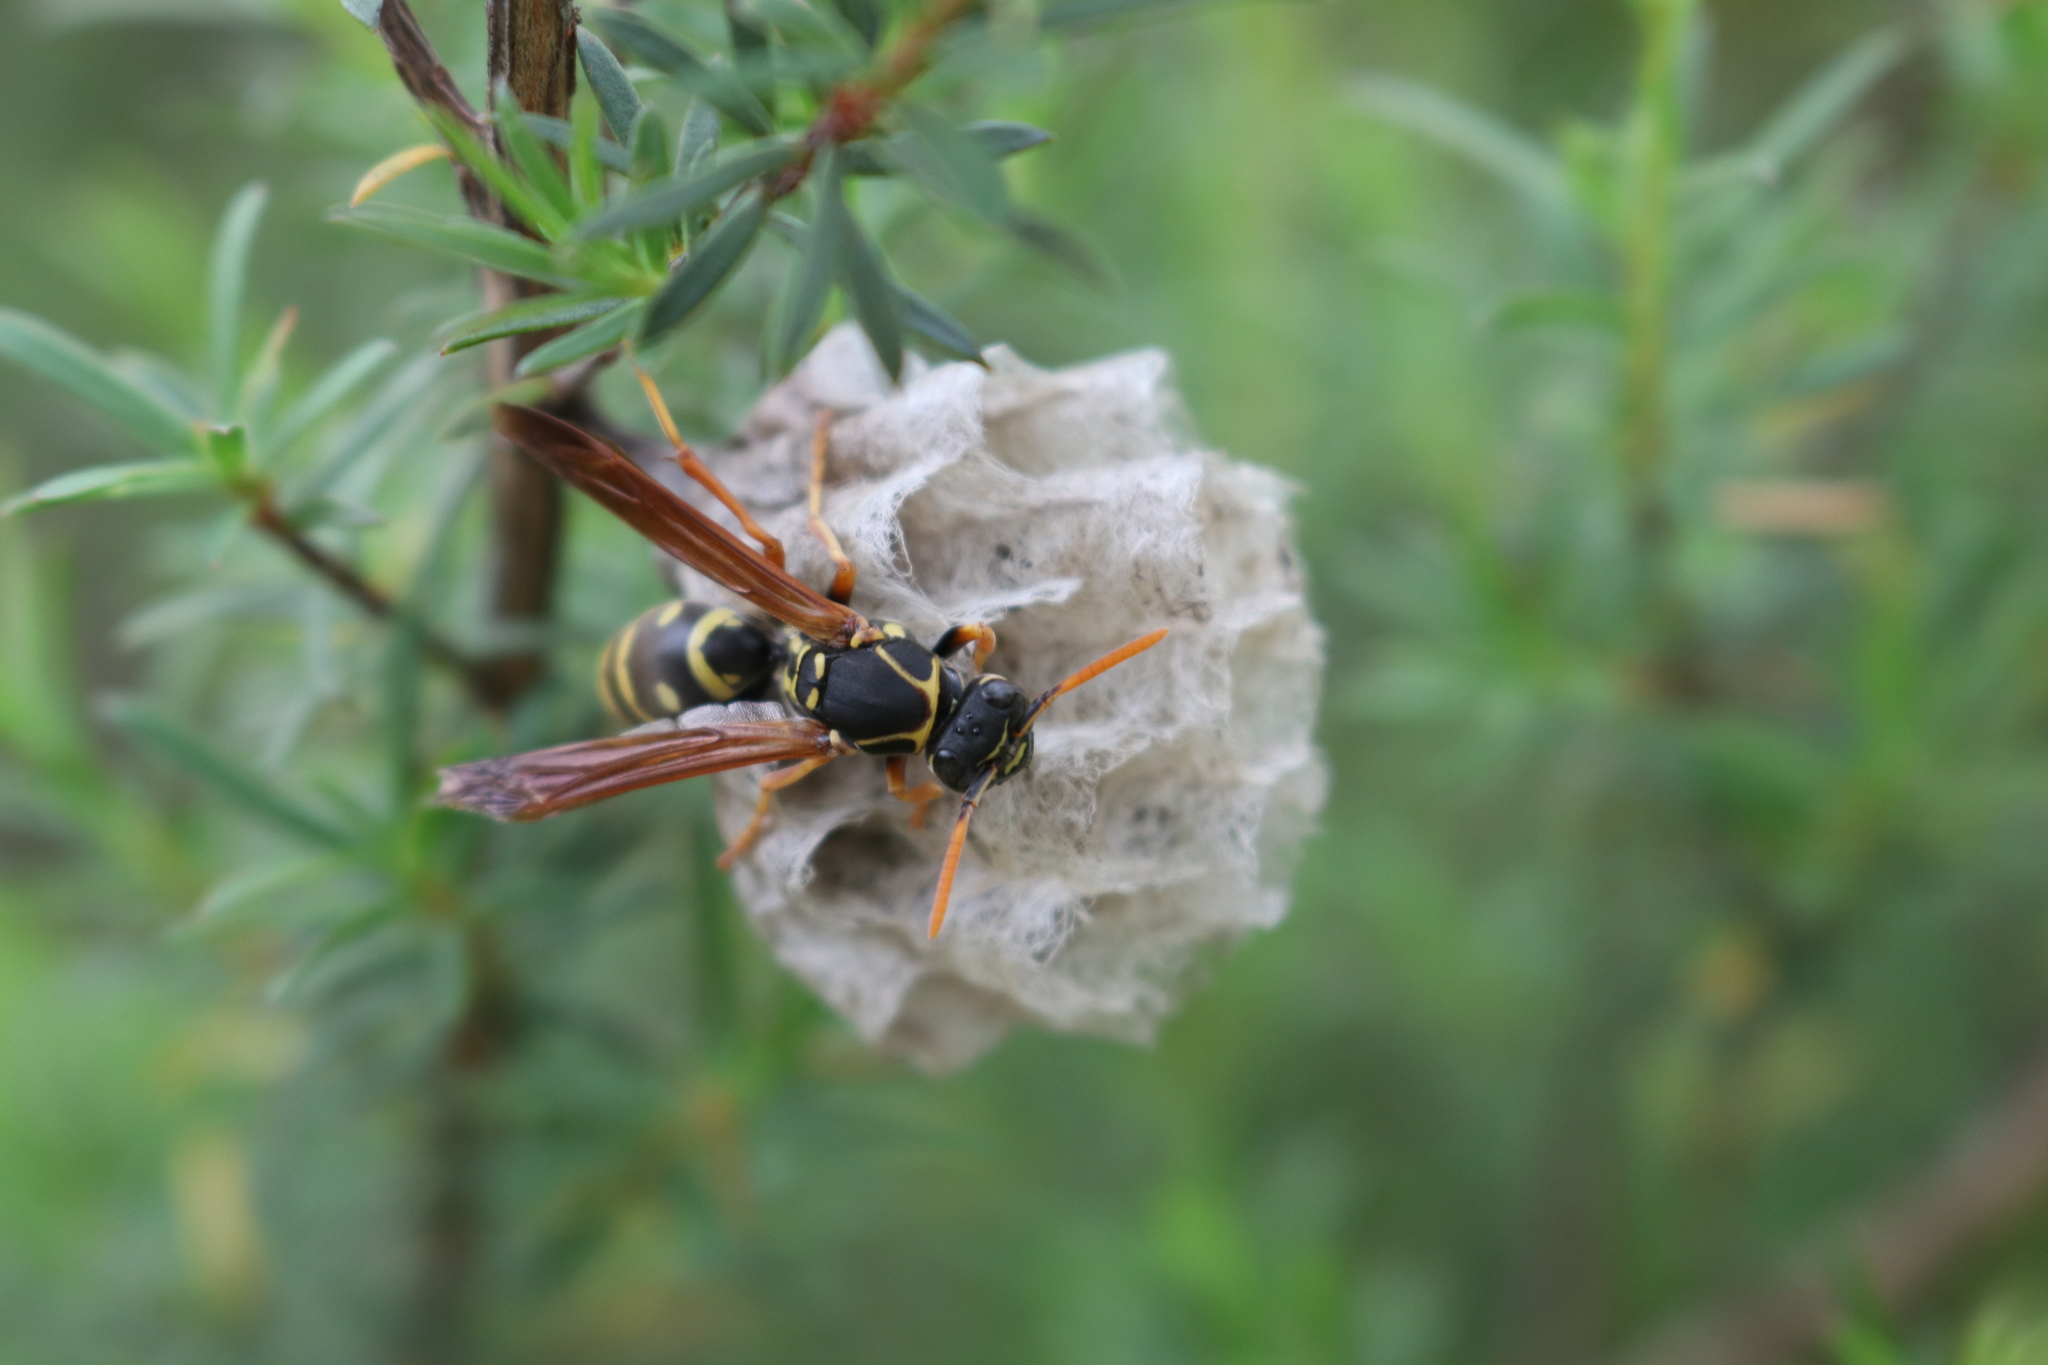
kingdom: Animalia
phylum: Arthropoda
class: Insecta
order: Hymenoptera
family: Eumenidae
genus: Polistes
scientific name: Polistes chinensis
